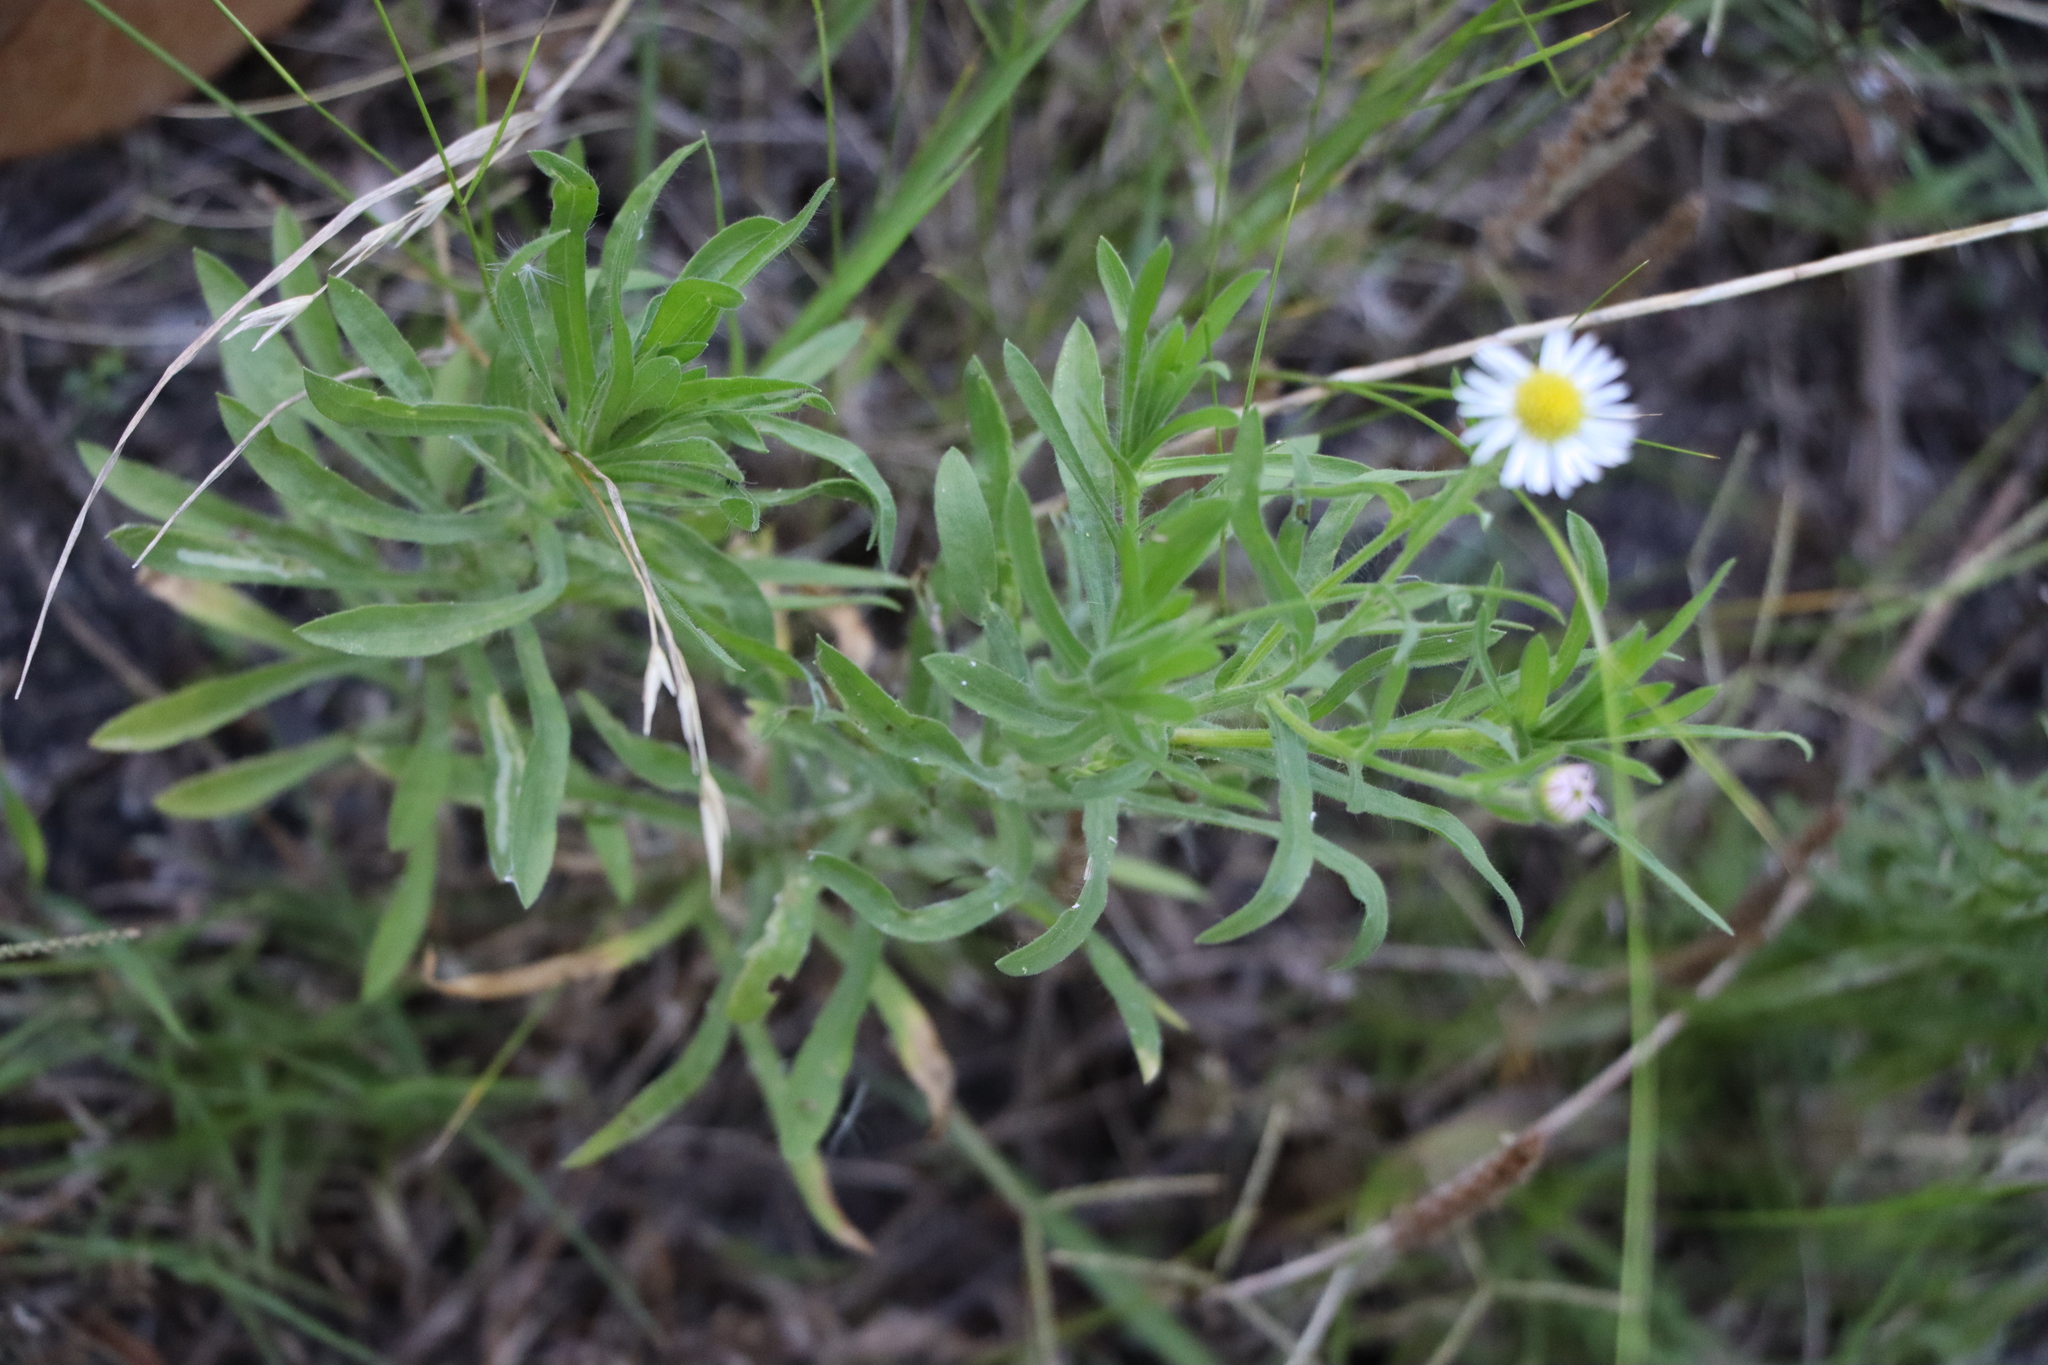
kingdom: Plantae
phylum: Tracheophyta
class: Magnoliopsida
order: Asterales
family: Asteraceae
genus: Hysterionica
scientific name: Hysterionica resinosa
